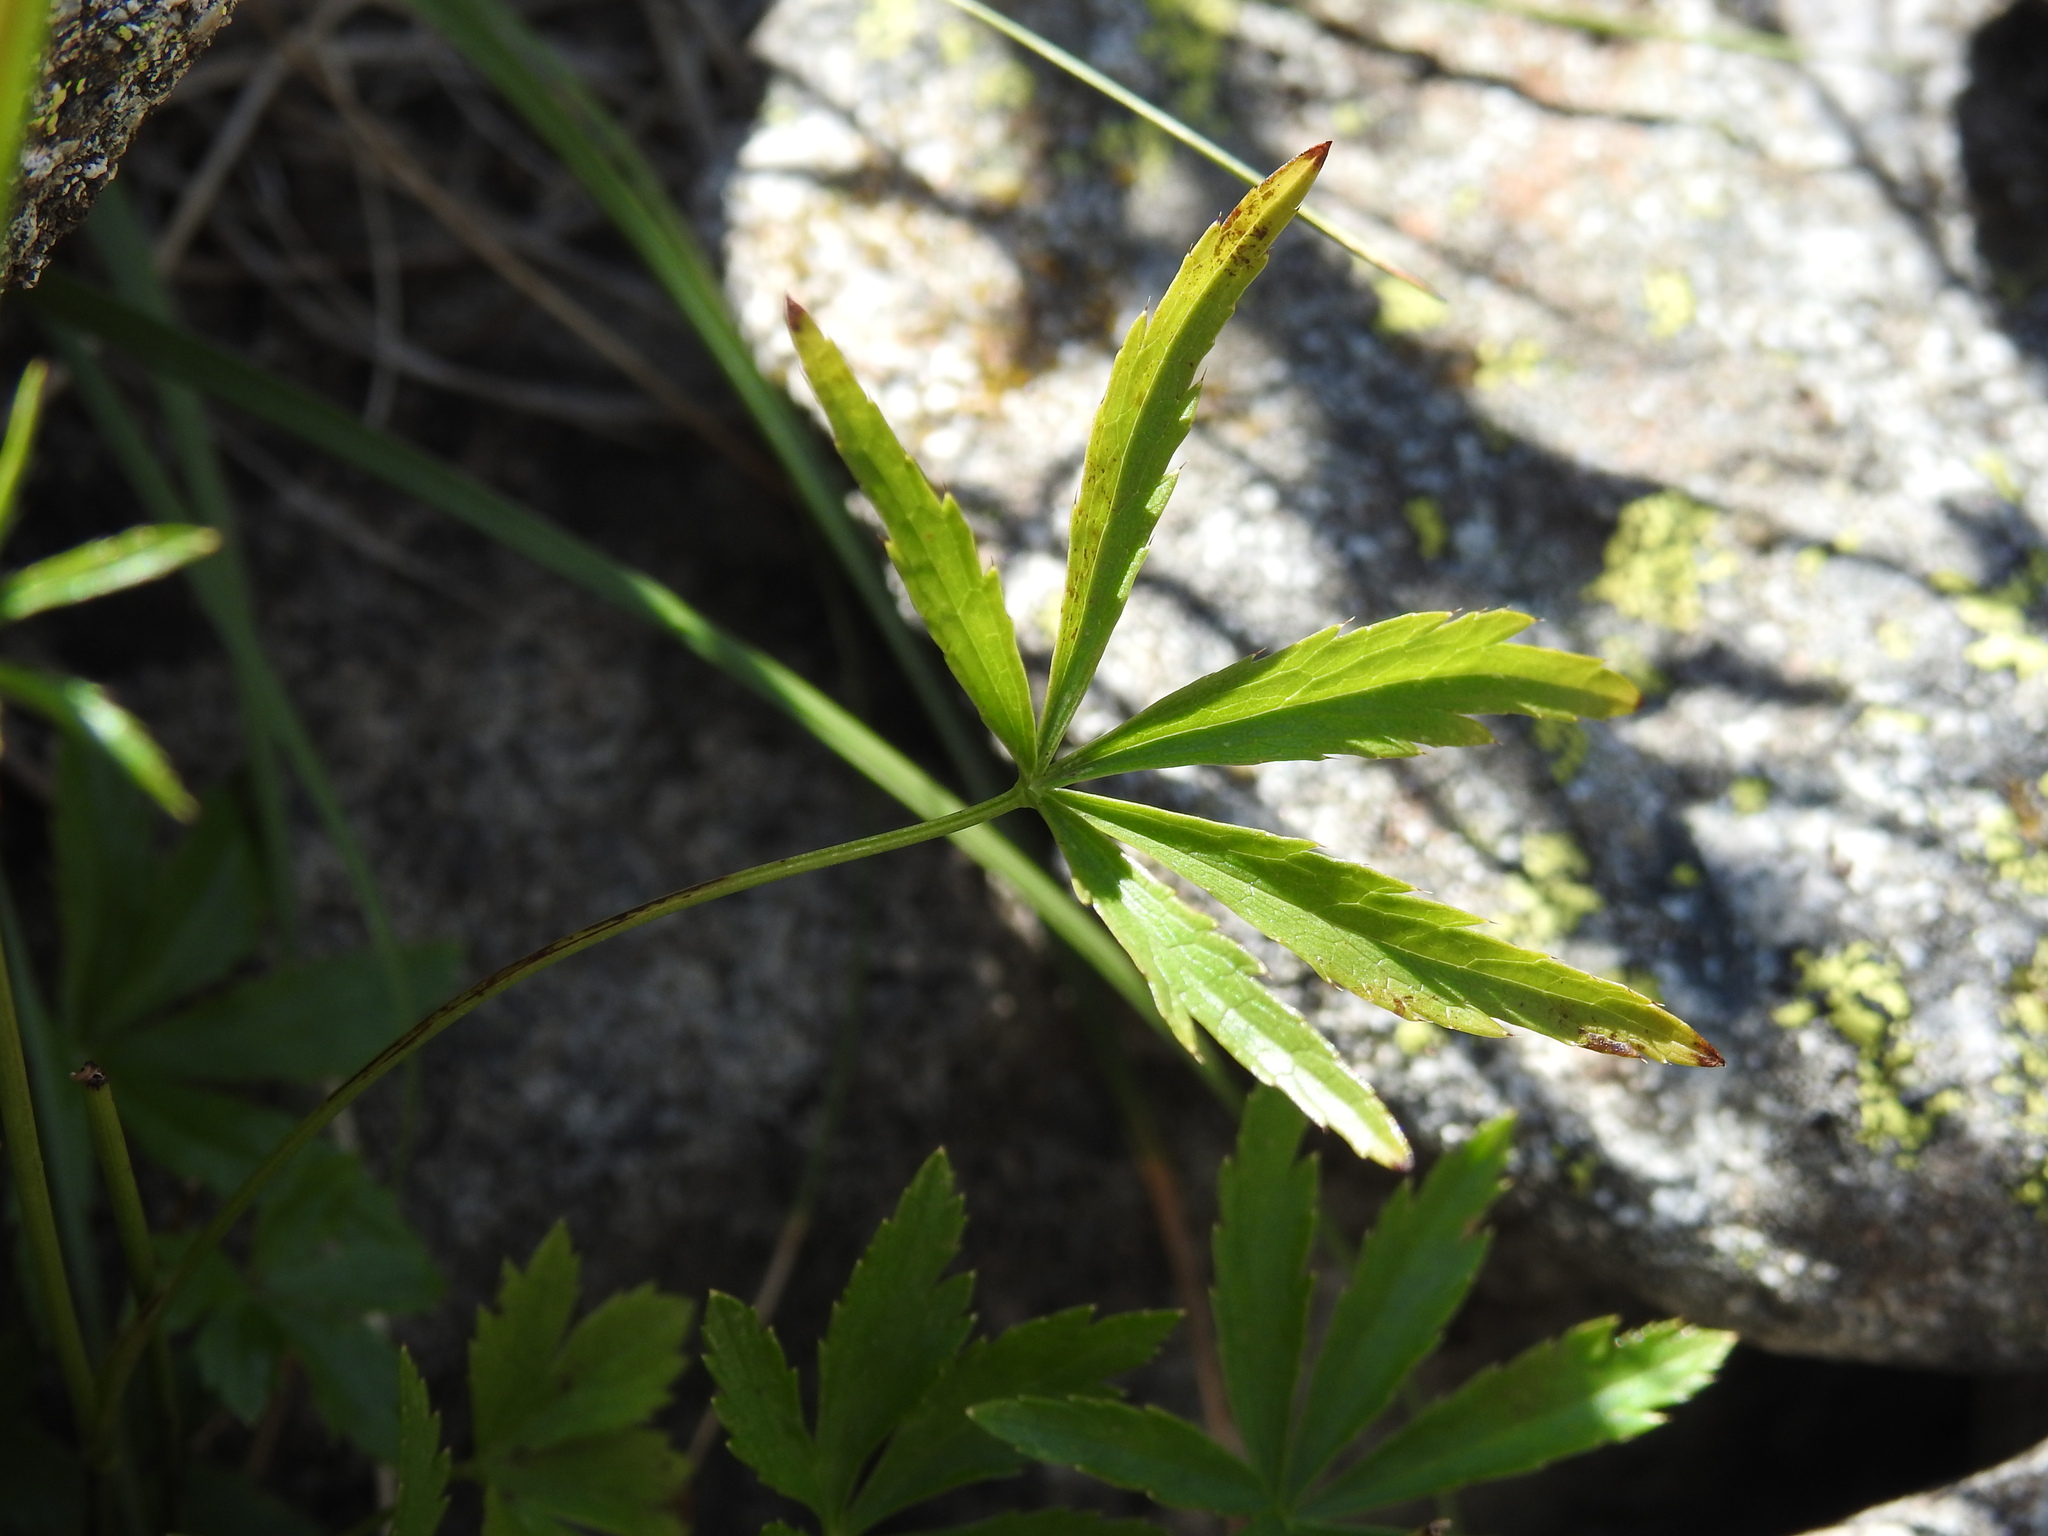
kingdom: Plantae
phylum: Tracheophyta
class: Magnoliopsida
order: Apiales
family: Apiaceae
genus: Astrantia
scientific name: Astrantia minor
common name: Lesser masterwort
